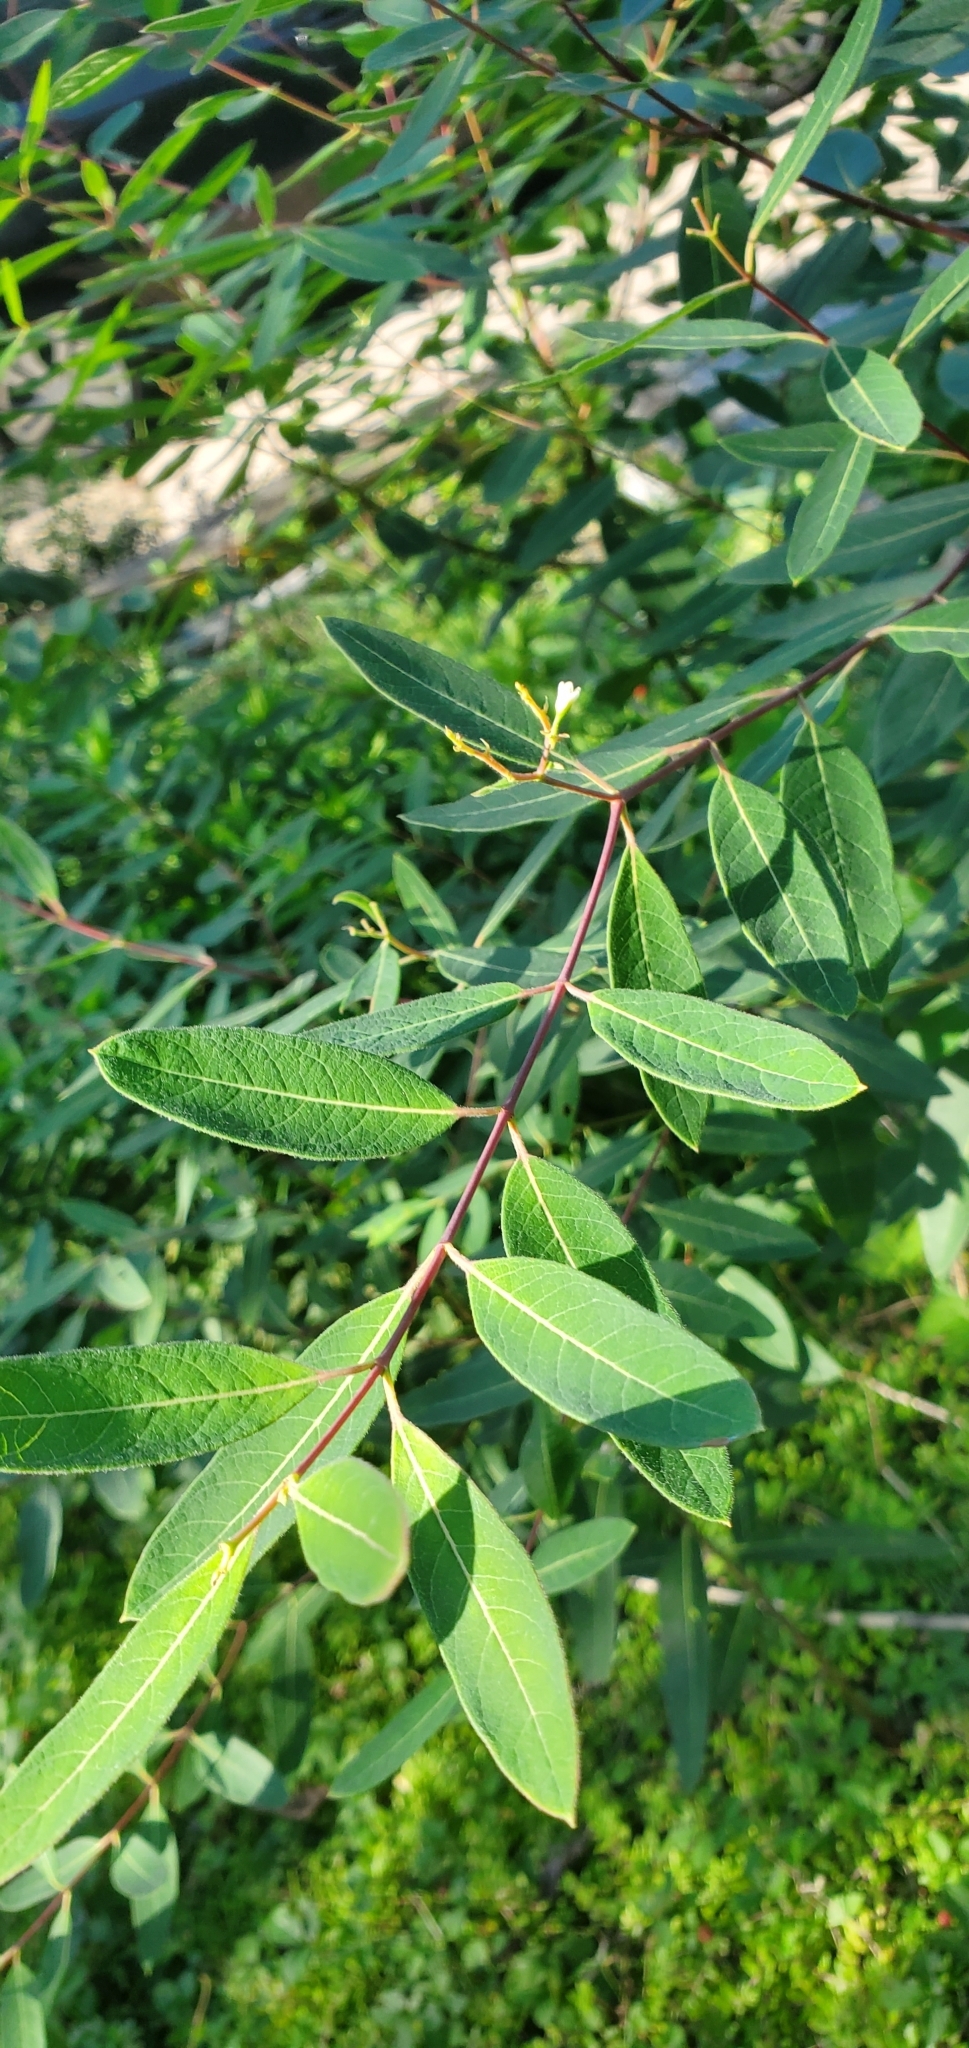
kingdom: Plantae
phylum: Tracheophyta
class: Magnoliopsida
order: Gentianales
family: Apocynaceae
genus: Apocynum
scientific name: Apocynum cannabinum
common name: Hemp dogbane
